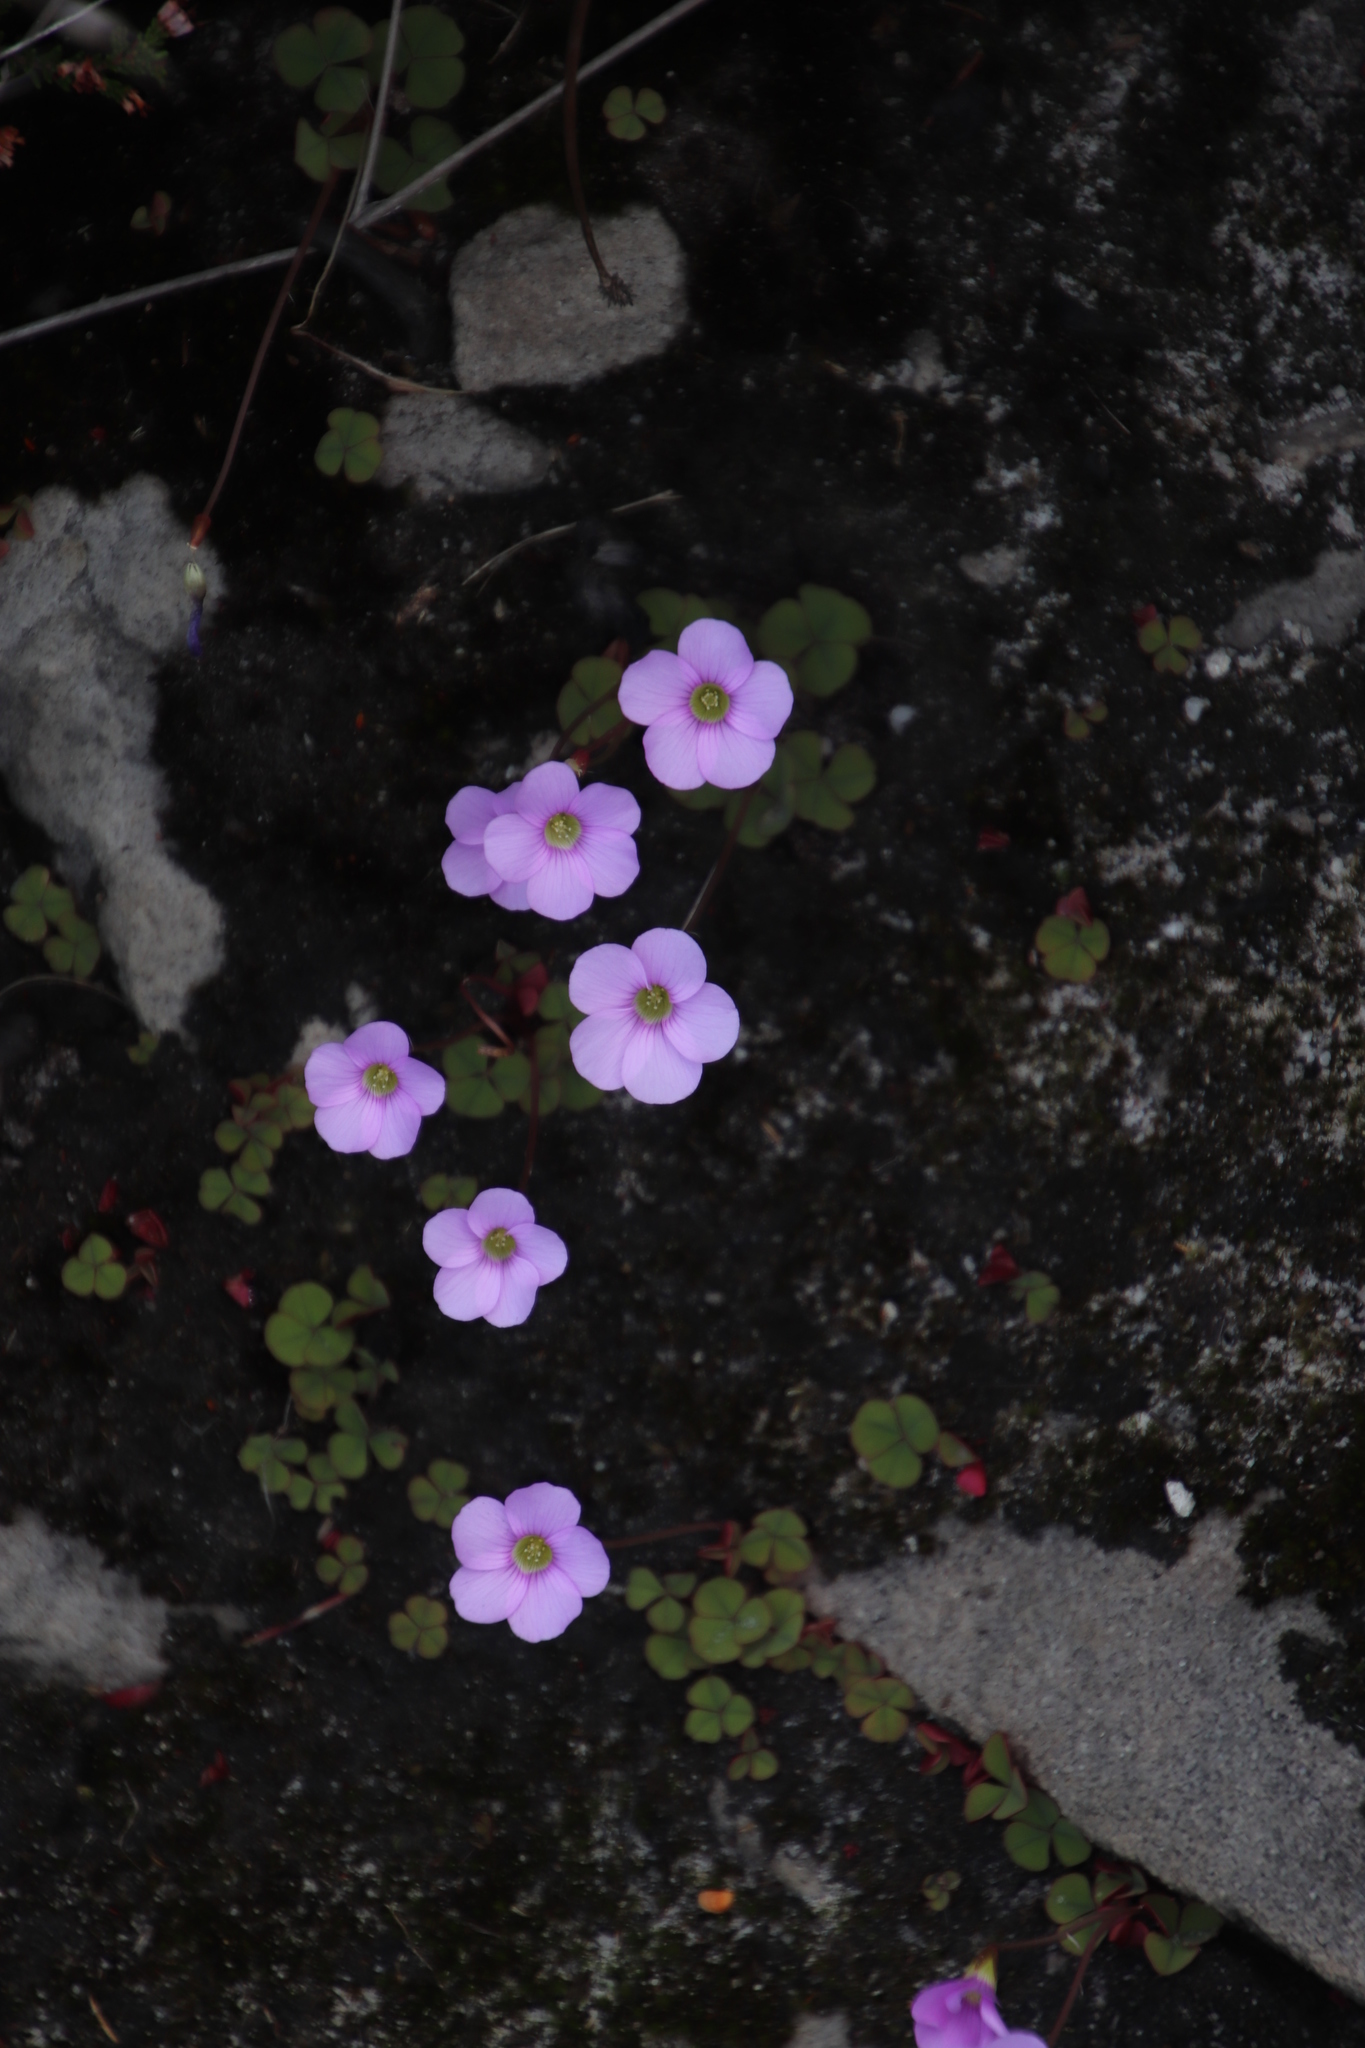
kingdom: Plantae
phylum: Tracheophyta
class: Magnoliopsida
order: Oxalidales
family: Oxalidaceae
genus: Oxalis
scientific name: Oxalis commutata
